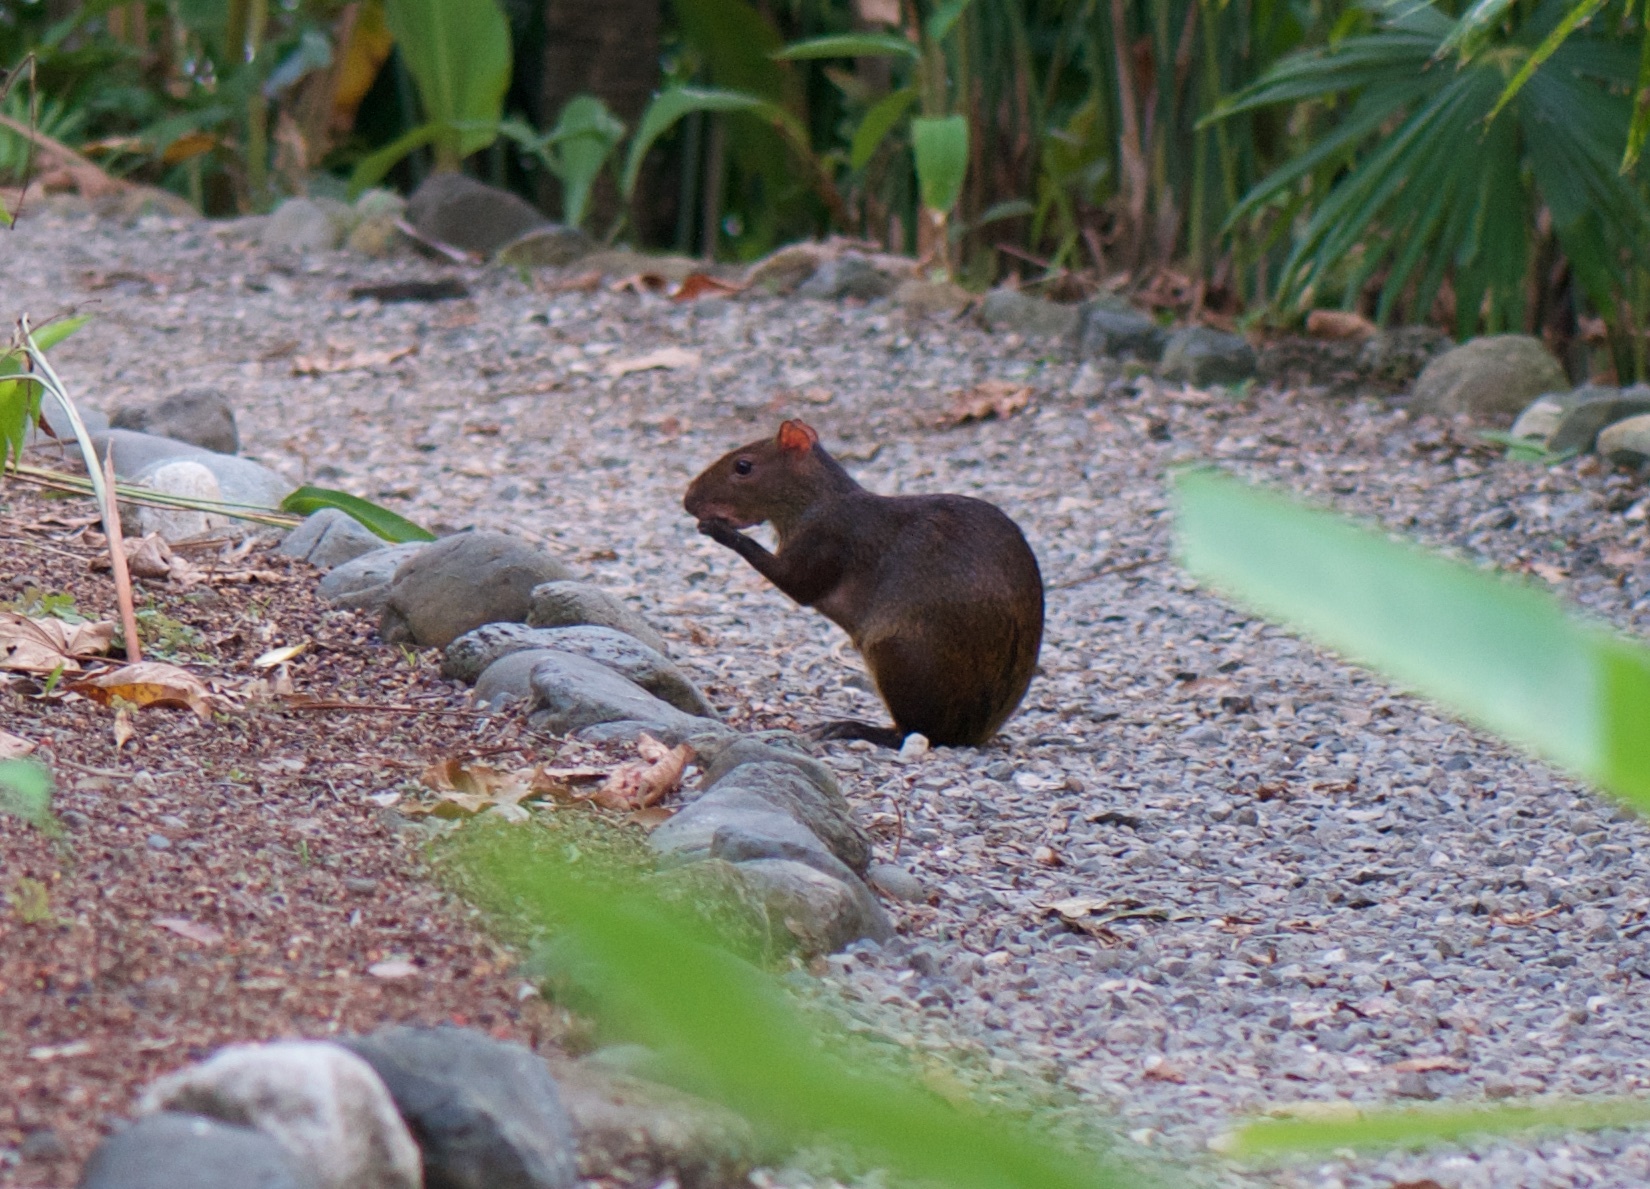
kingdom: Animalia
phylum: Chordata
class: Mammalia
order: Rodentia
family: Dasyproctidae
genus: Dasyprocta
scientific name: Dasyprocta punctata
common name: Central american agouti
